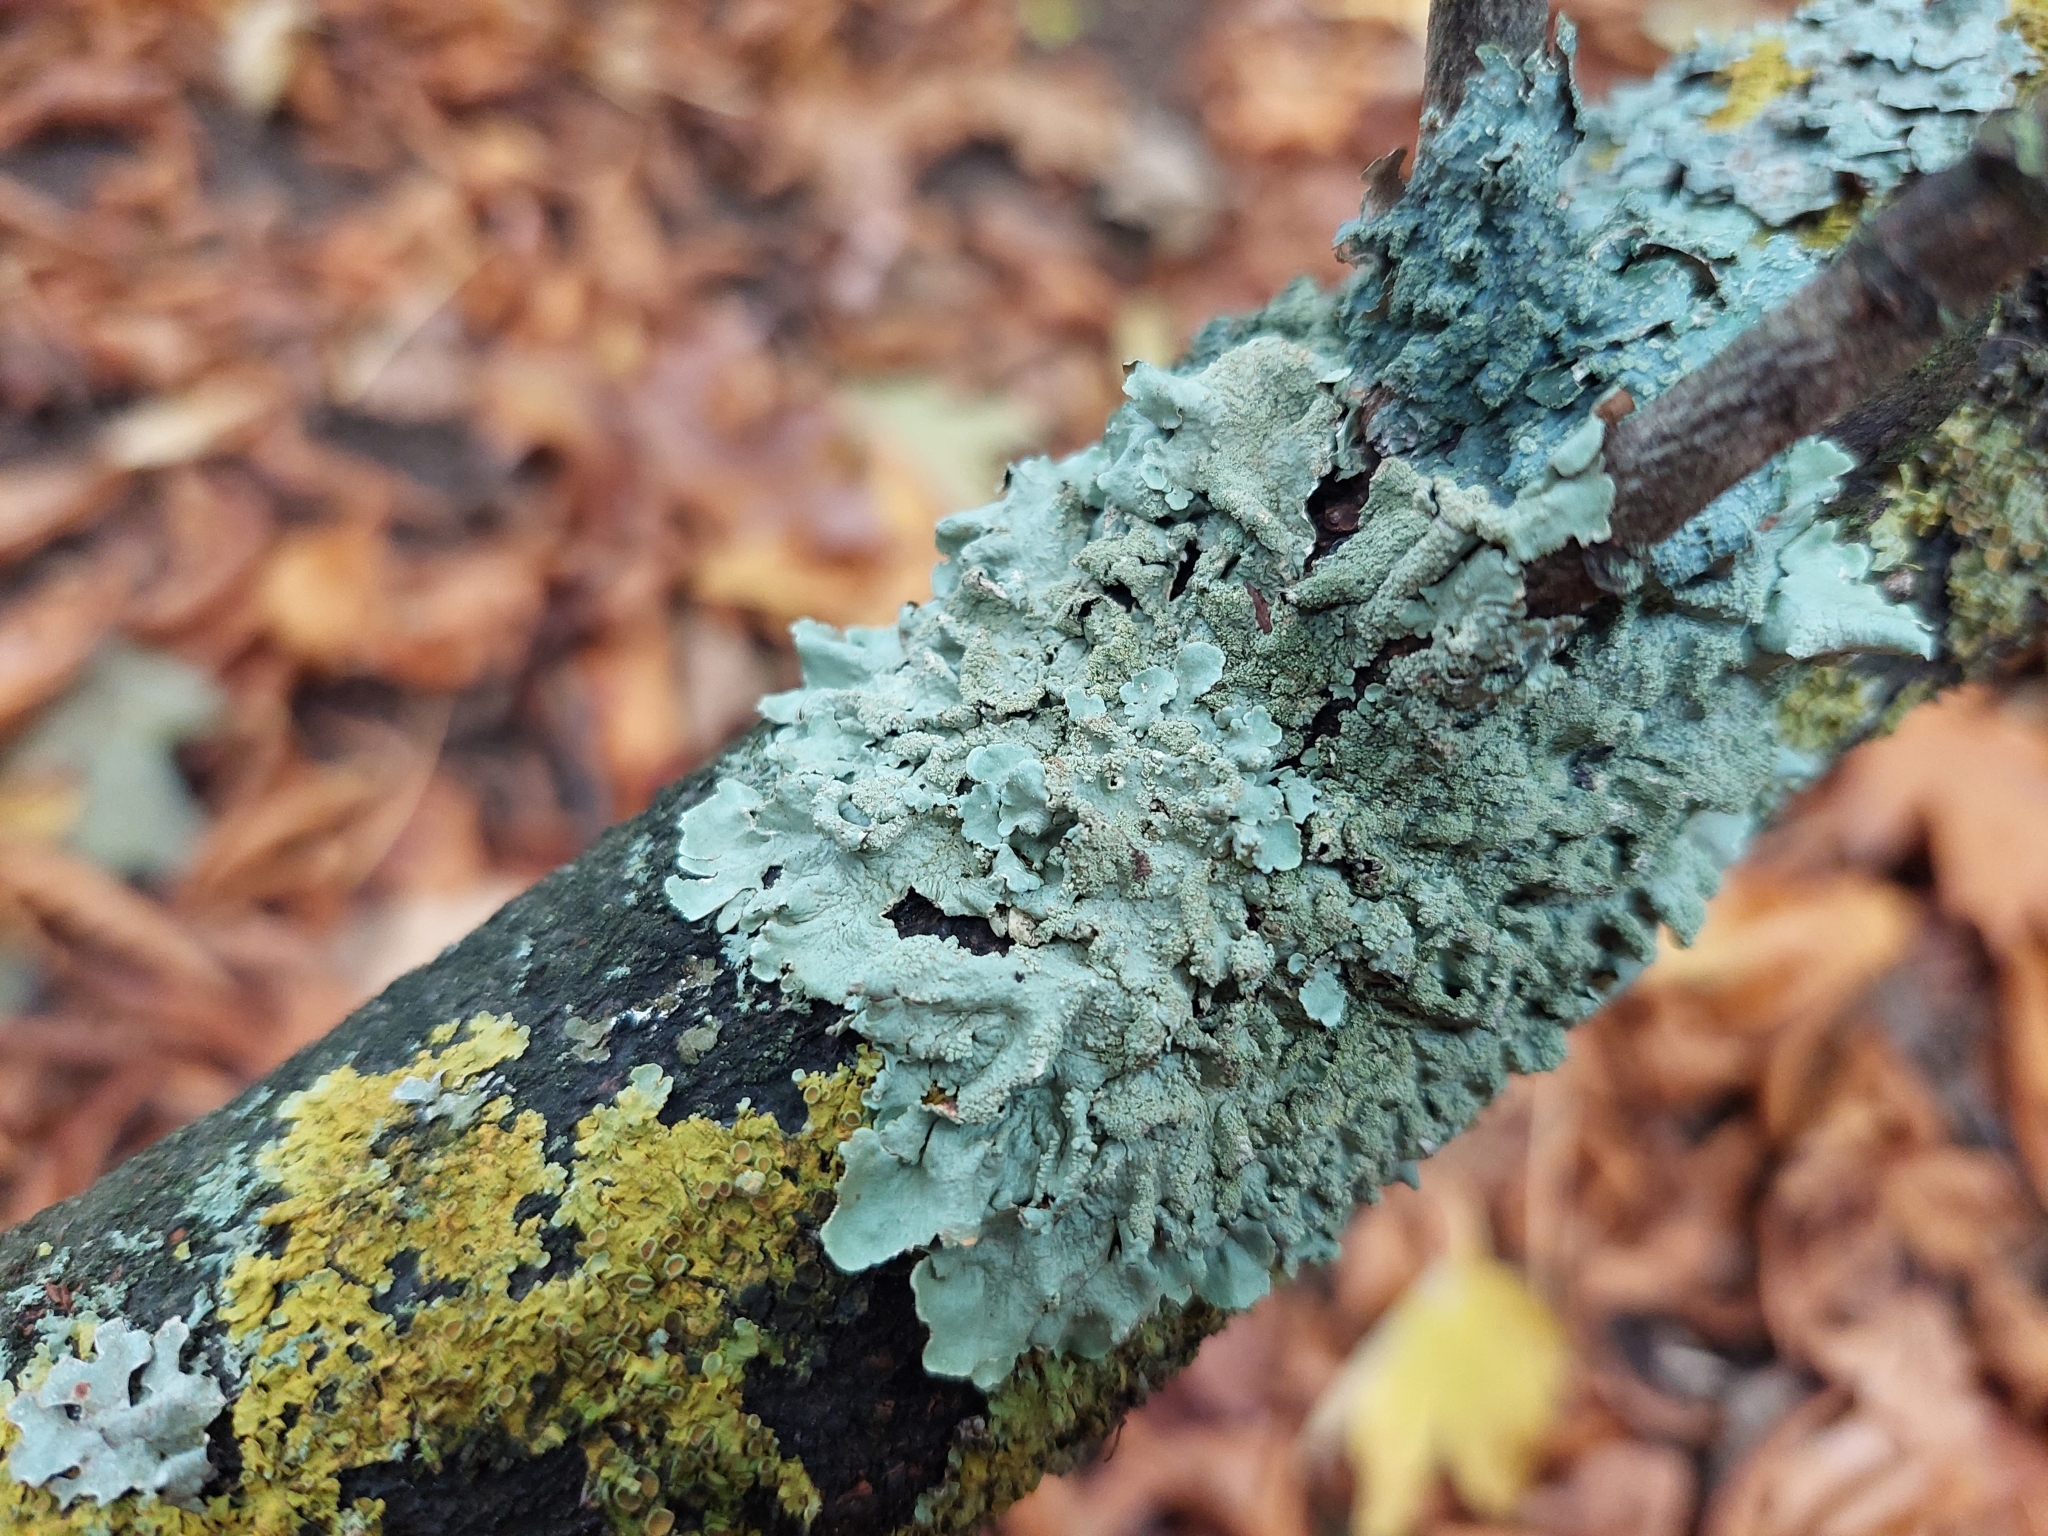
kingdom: Fungi
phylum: Ascomycota
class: Lecanoromycetes
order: Lecanorales
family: Parmeliaceae
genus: Flavoparmelia
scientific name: Flavoparmelia caperata
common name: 40-mile per hour lichen
